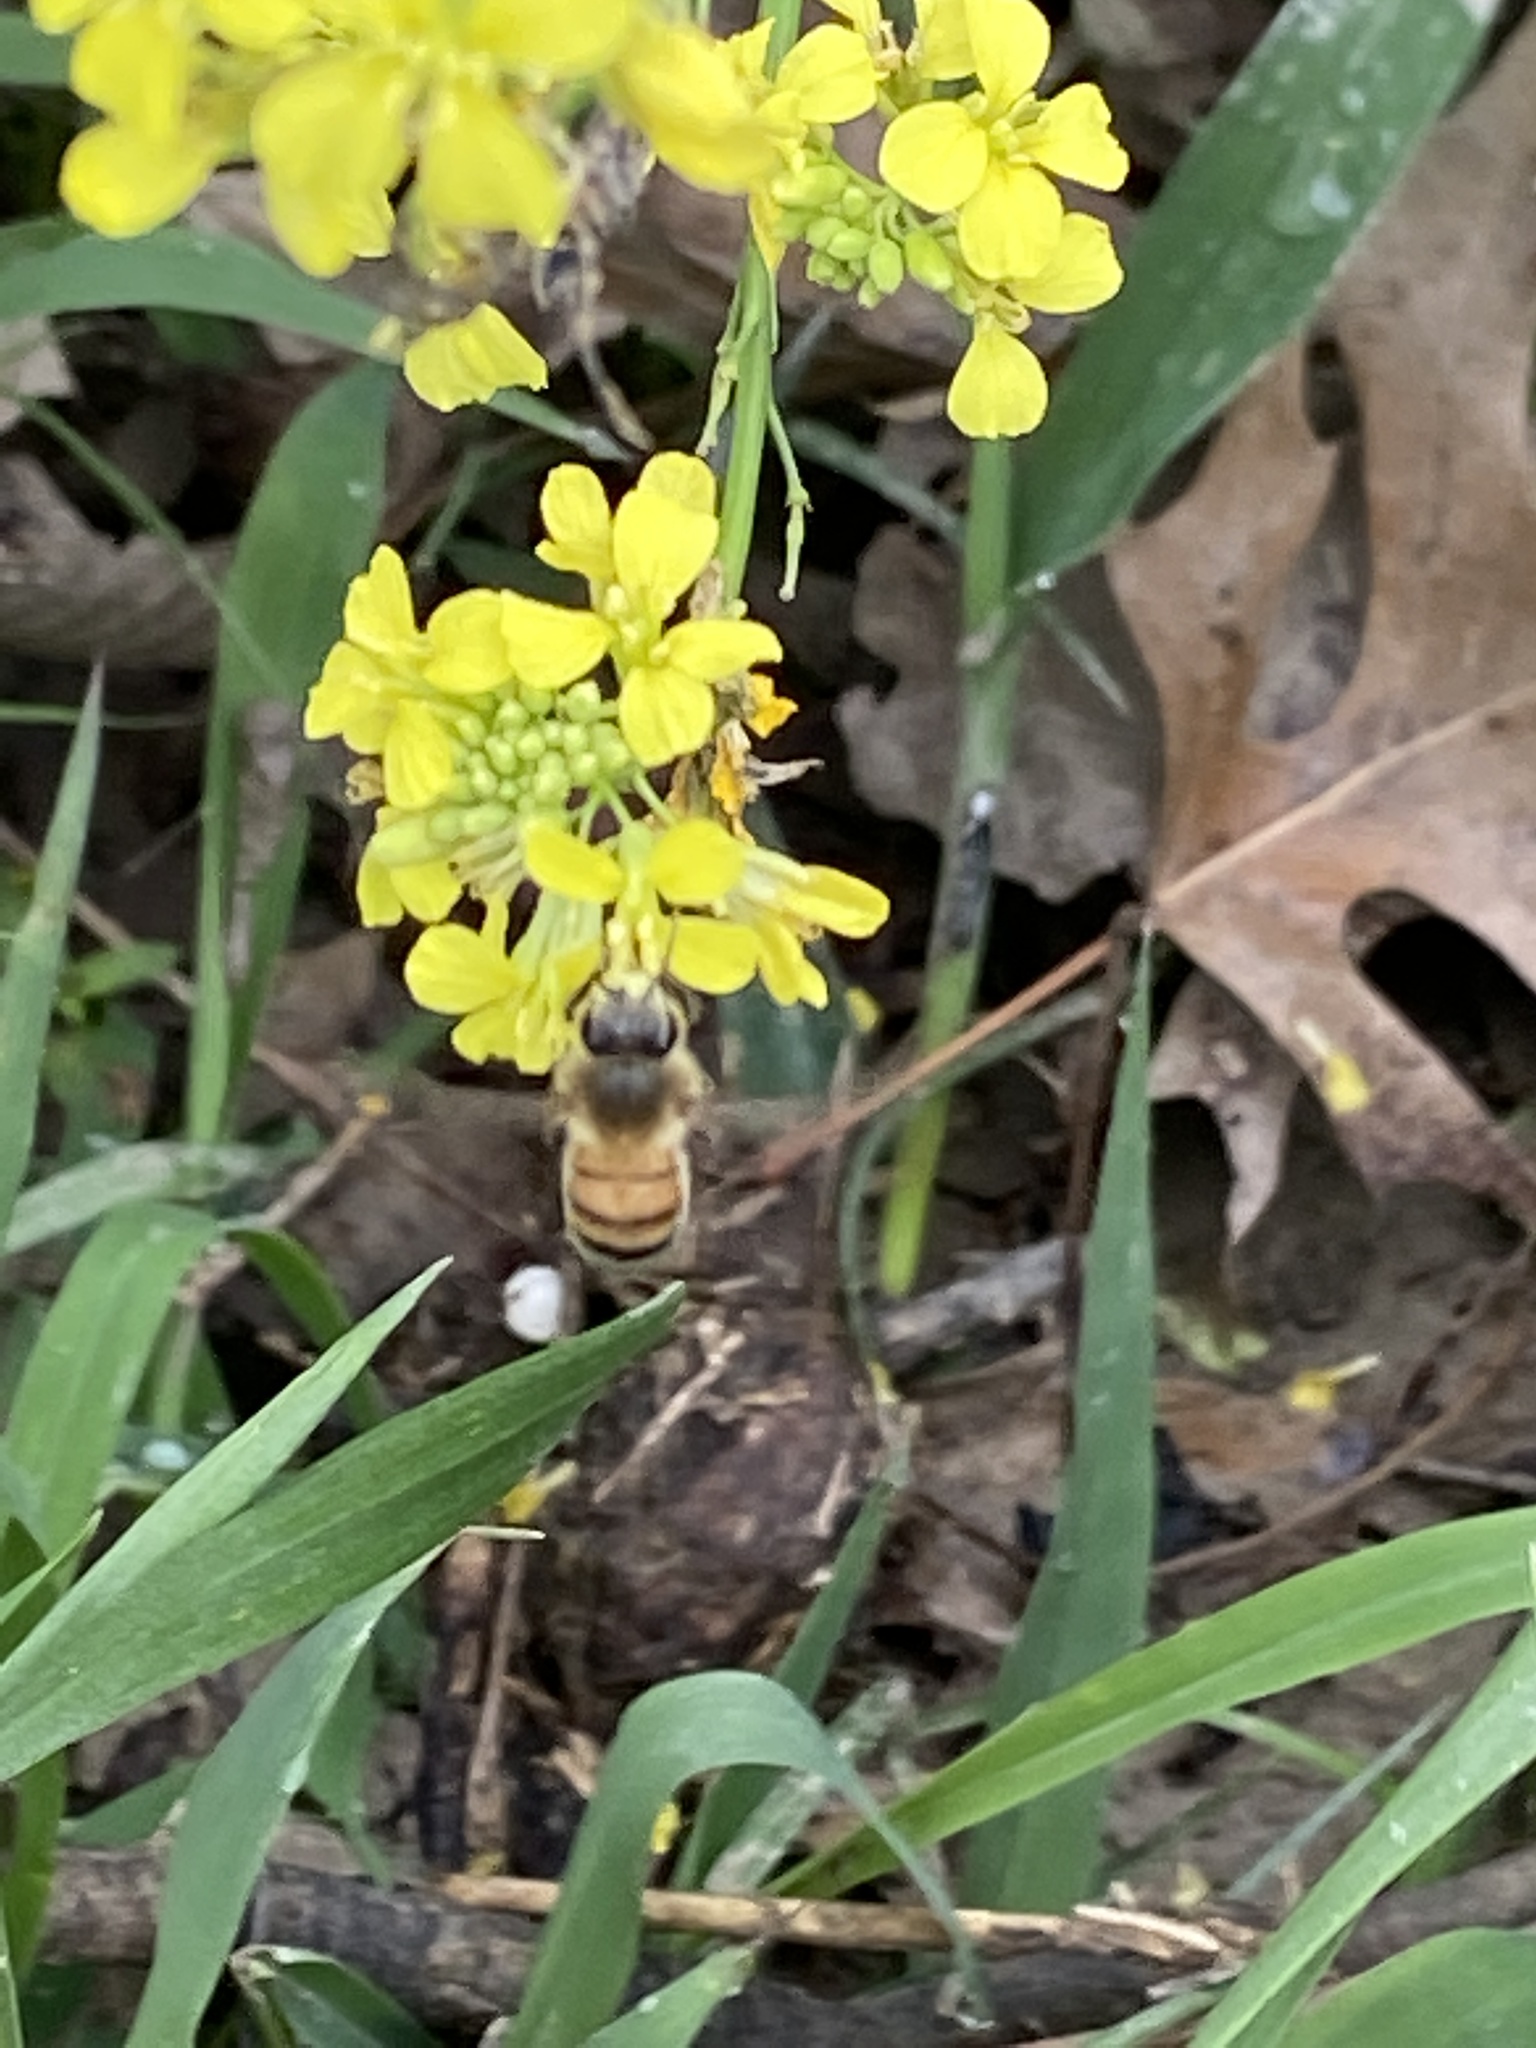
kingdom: Animalia
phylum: Arthropoda
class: Insecta
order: Hymenoptera
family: Apidae
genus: Apis
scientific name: Apis mellifera
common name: Honey bee
